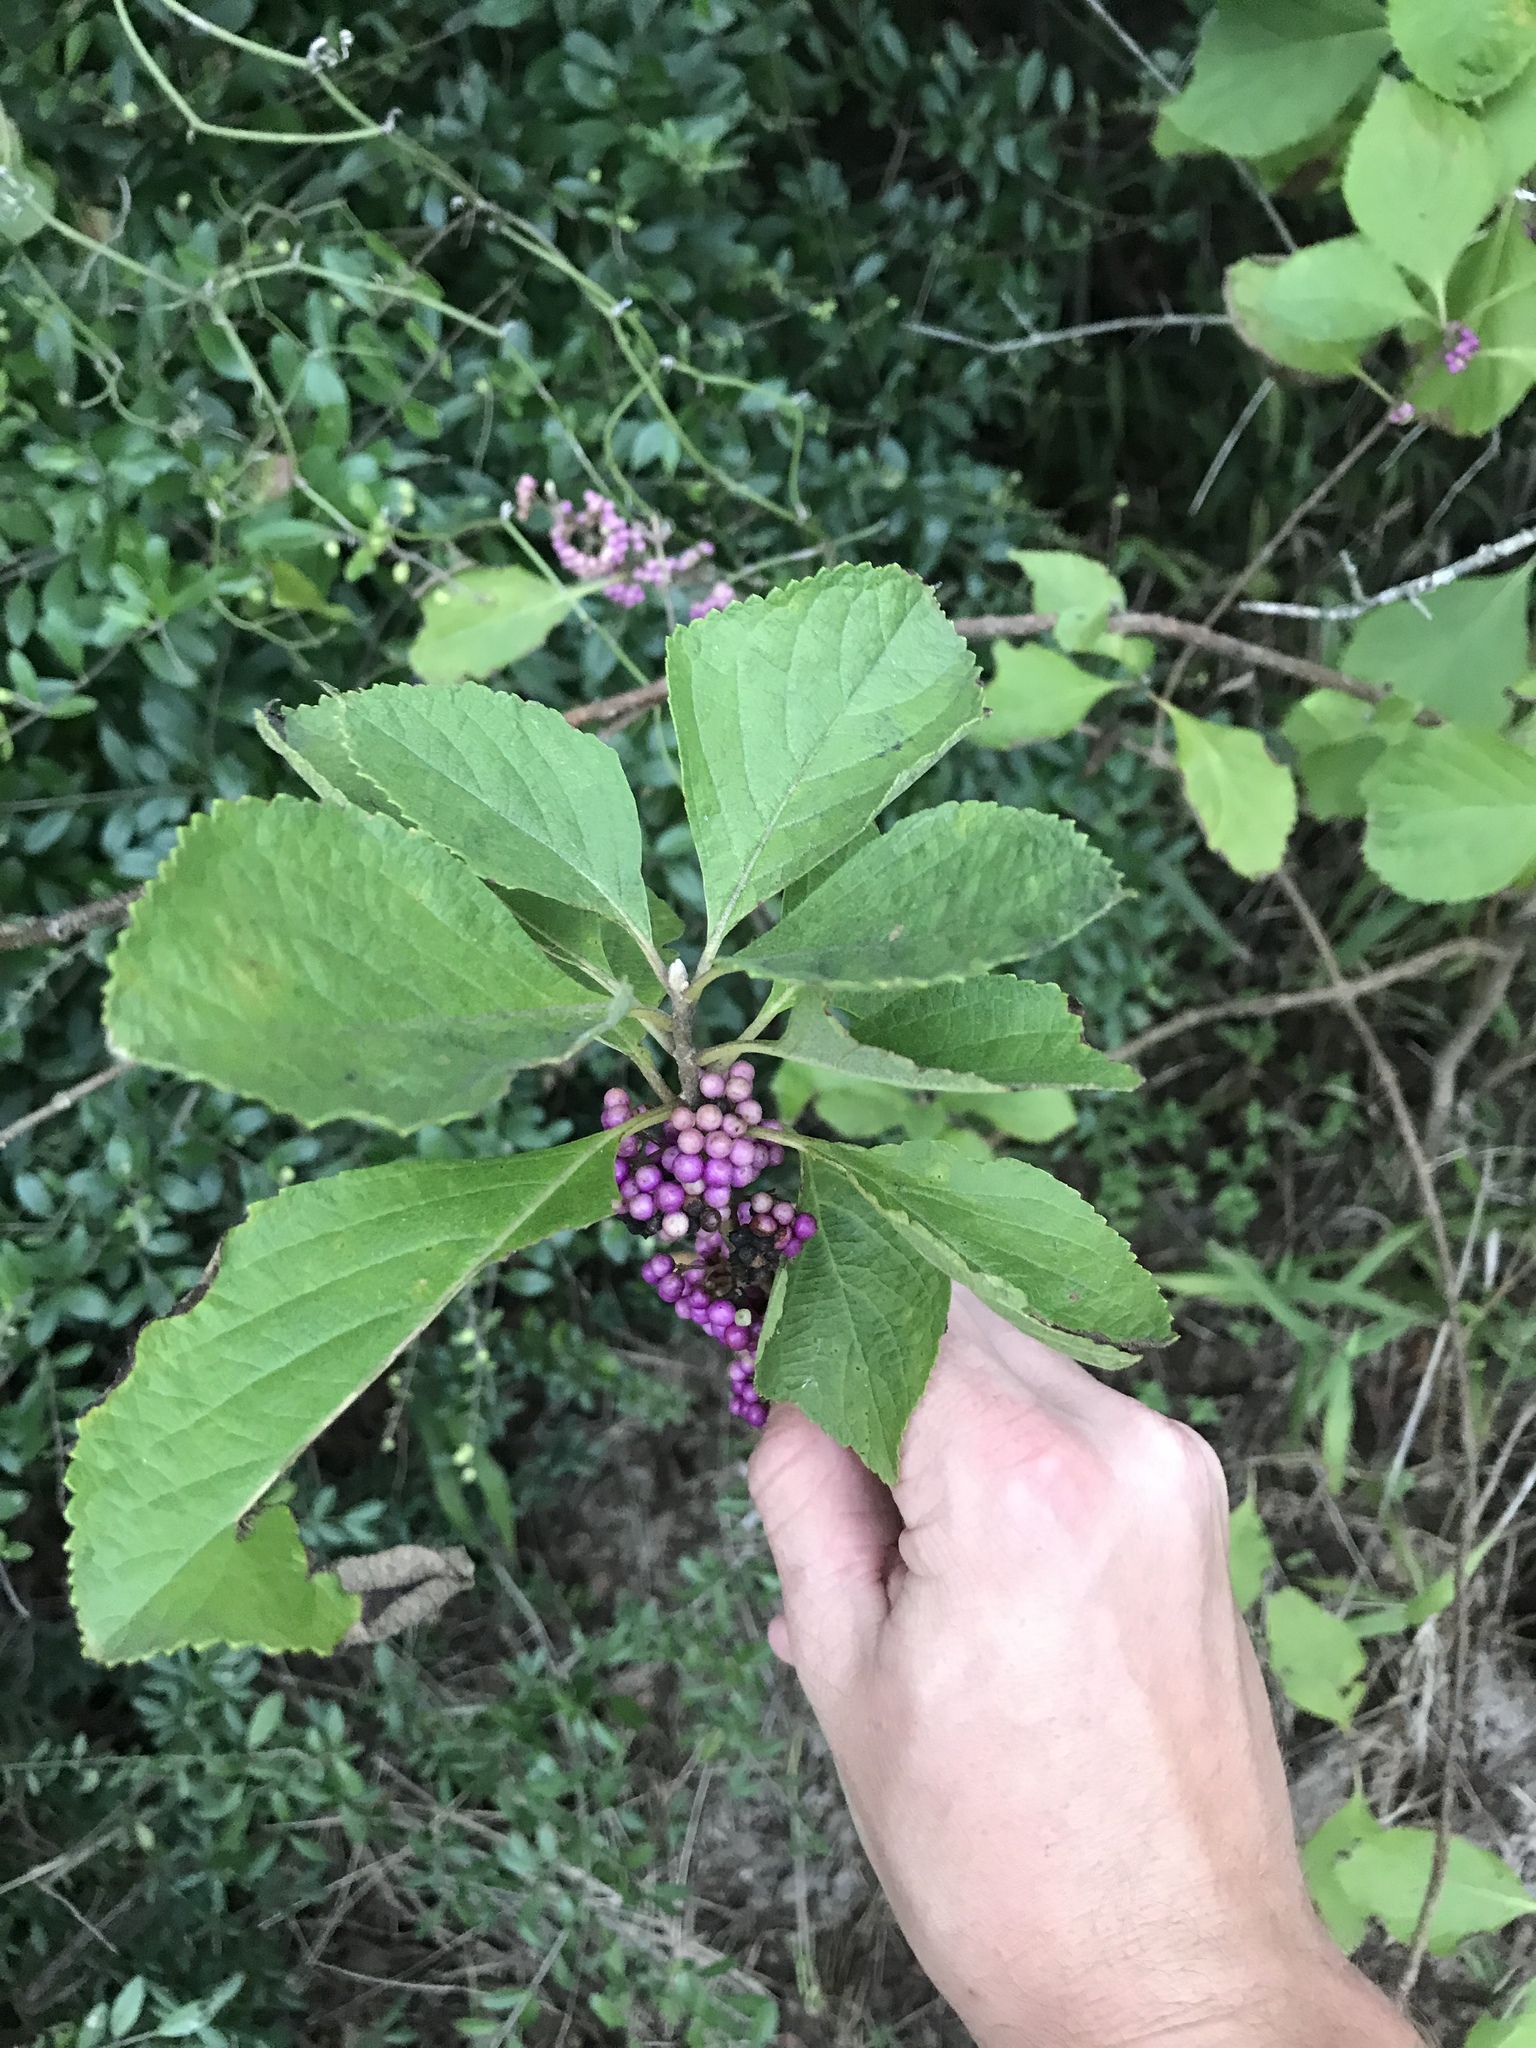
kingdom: Plantae
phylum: Tracheophyta
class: Magnoliopsida
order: Lamiales
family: Lamiaceae
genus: Callicarpa
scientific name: Callicarpa americana
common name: American beautyberry
